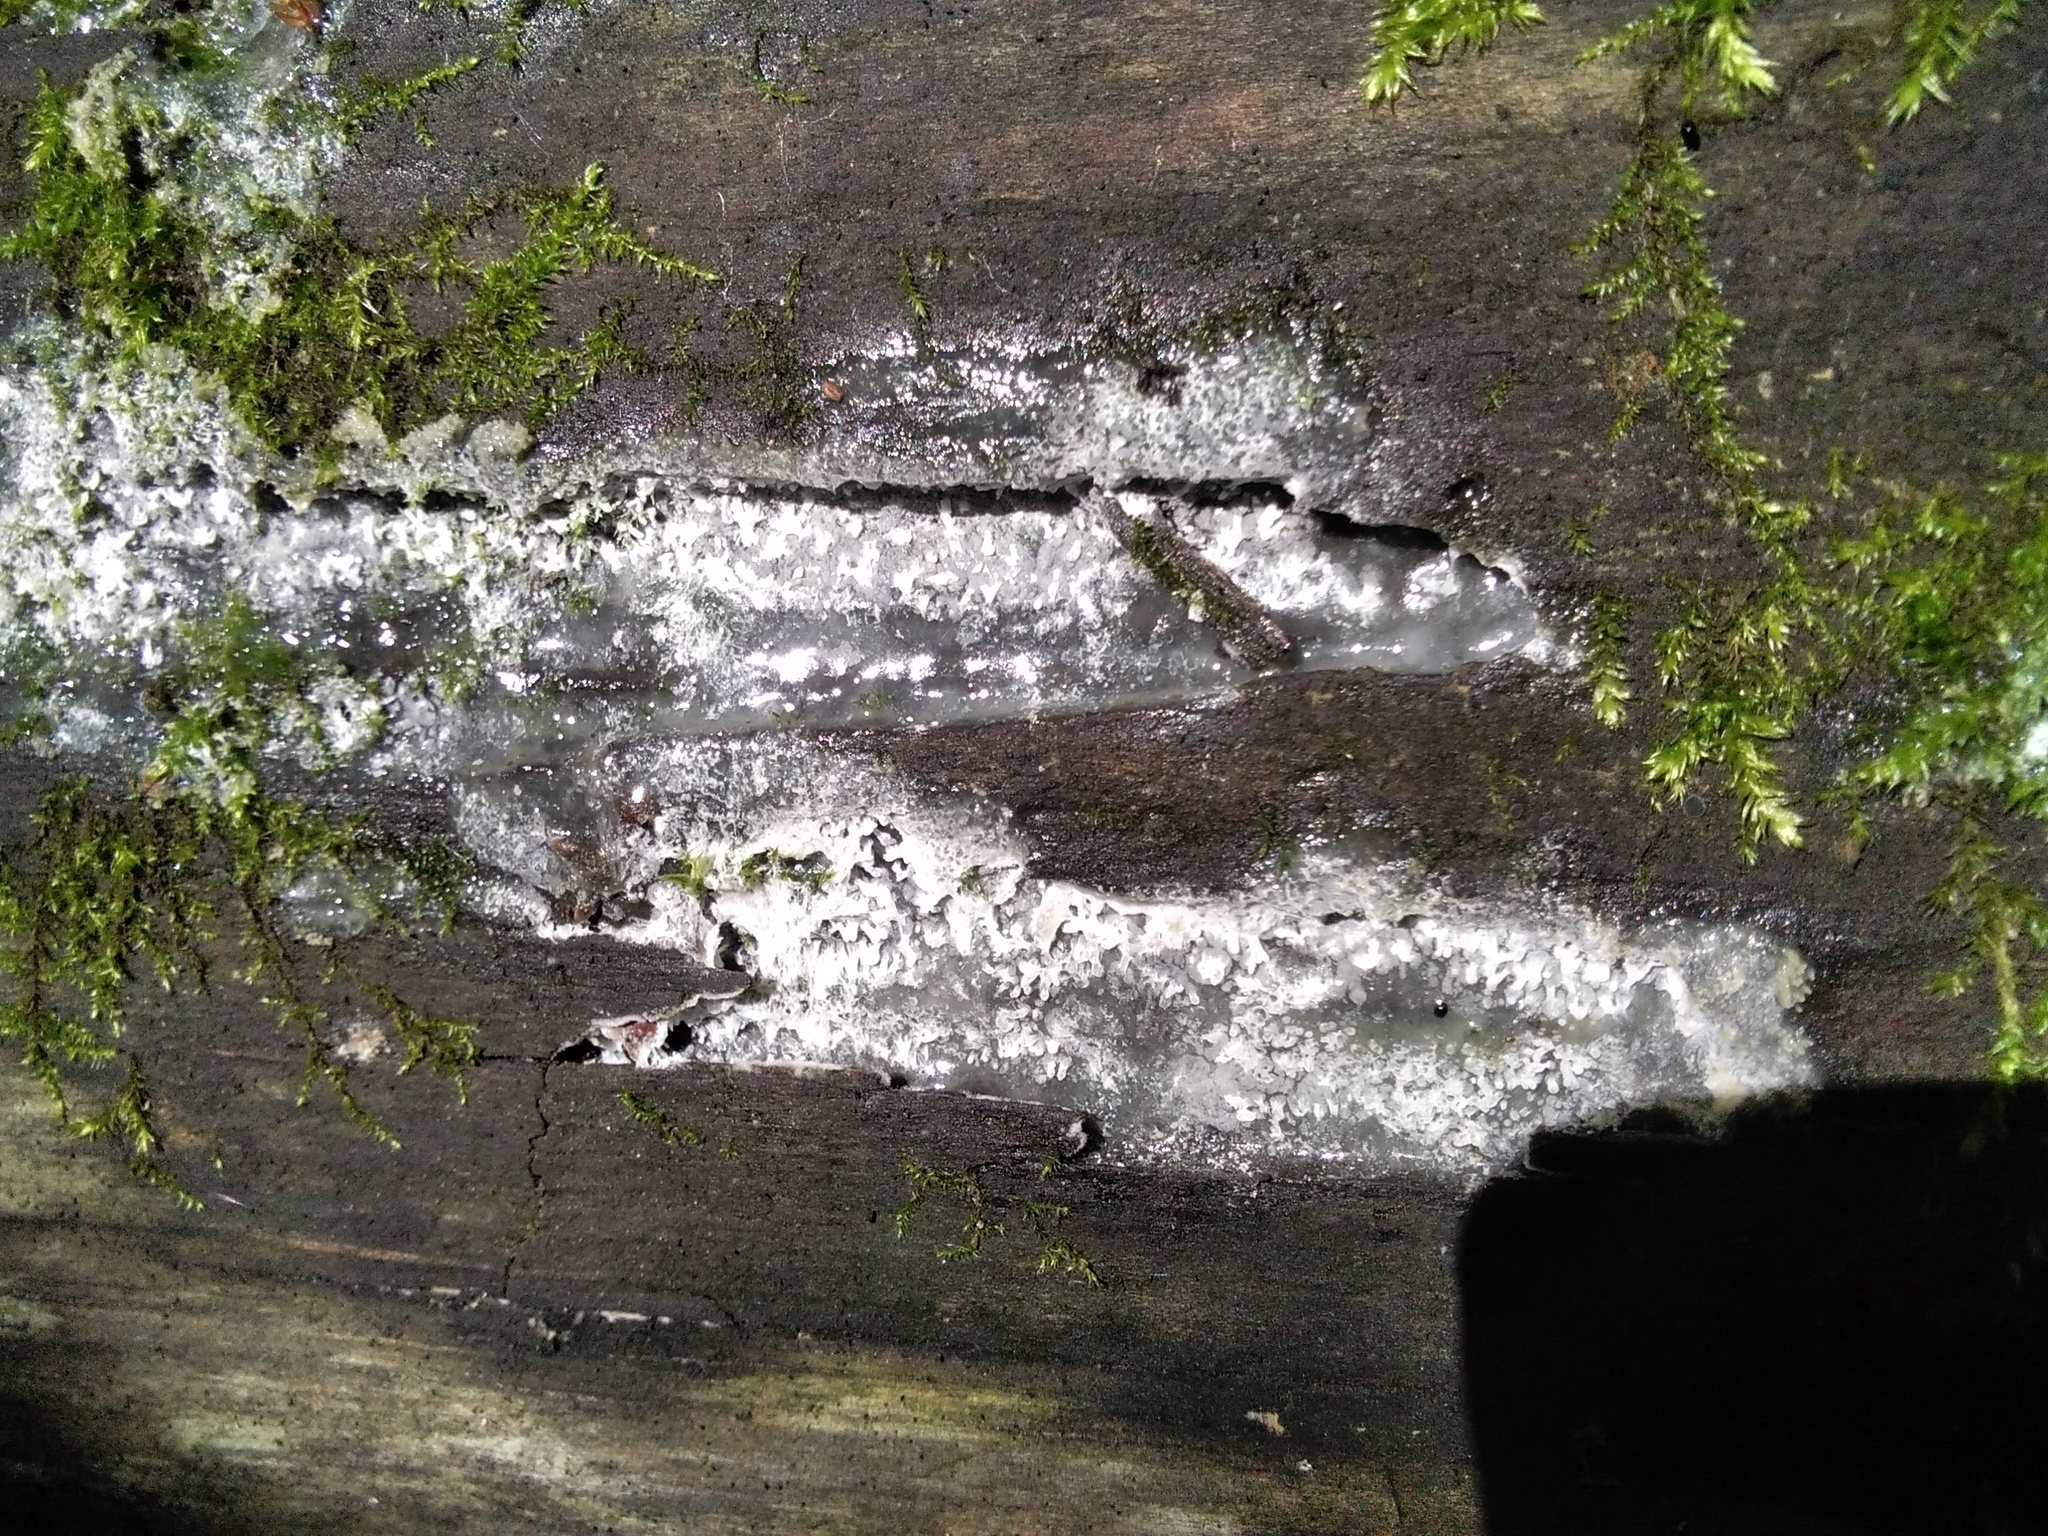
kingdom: Protozoa
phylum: Mycetozoa
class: Protosteliomycetes
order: Ceratiomyxales
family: Ceratiomyxaceae
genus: Ceratiomyxa
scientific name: Ceratiomyxa fruticulosa
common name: Honeycomb coral slime mold
